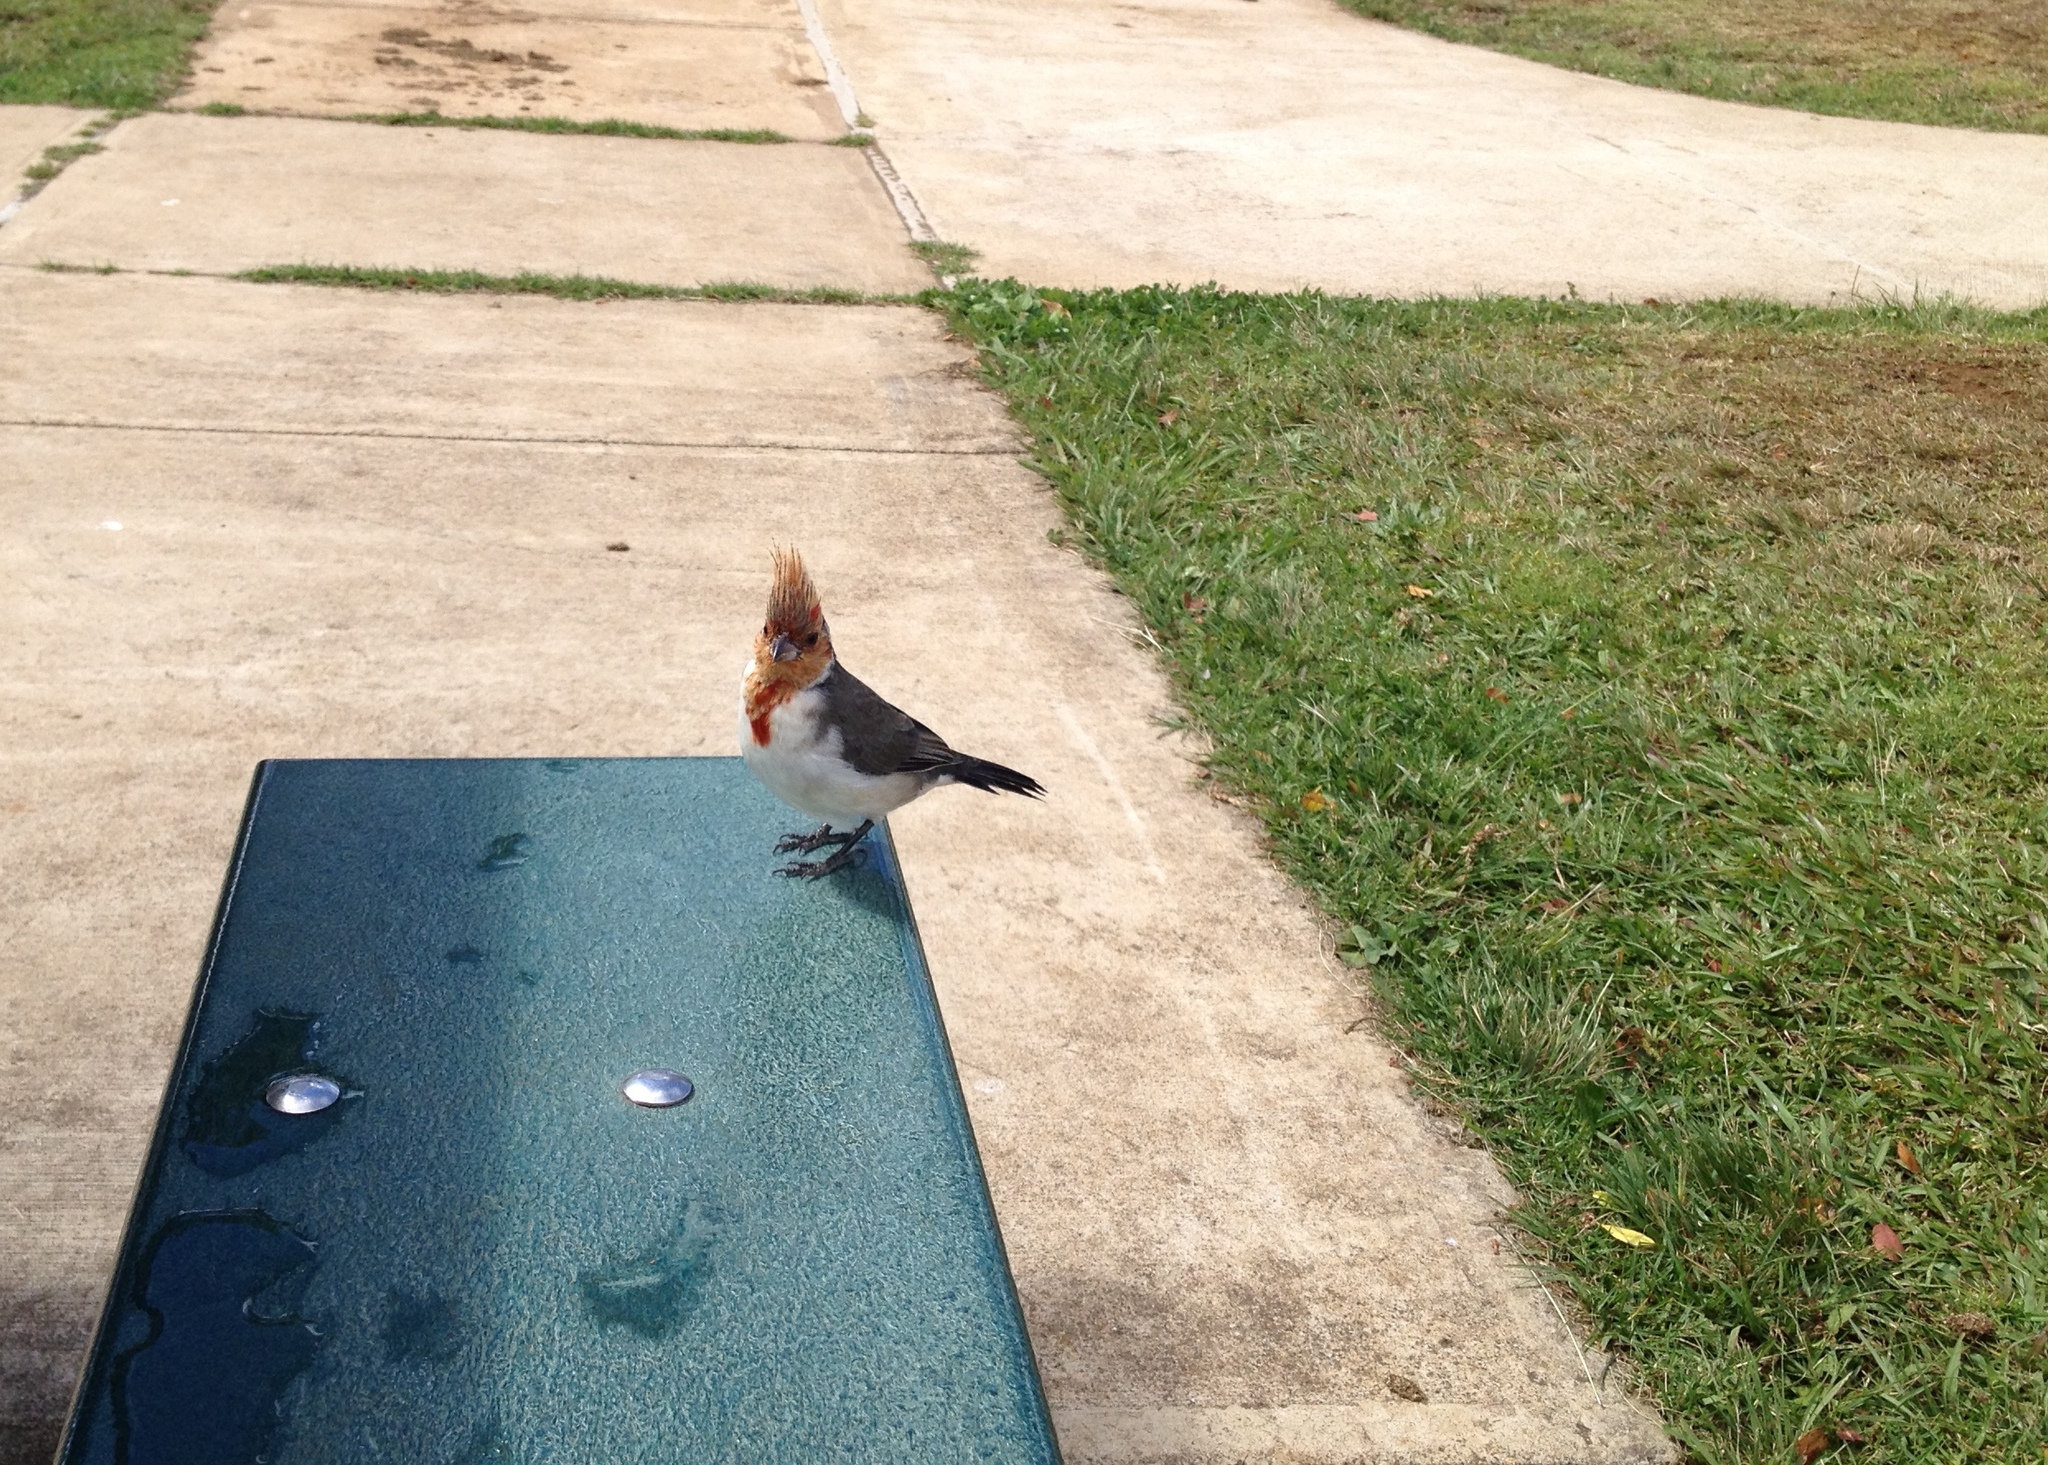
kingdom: Animalia
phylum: Chordata
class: Aves
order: Passeriformes
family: Thraupidae
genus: Paroaria
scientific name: Paroaria coronata
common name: Red-crested cardinal
